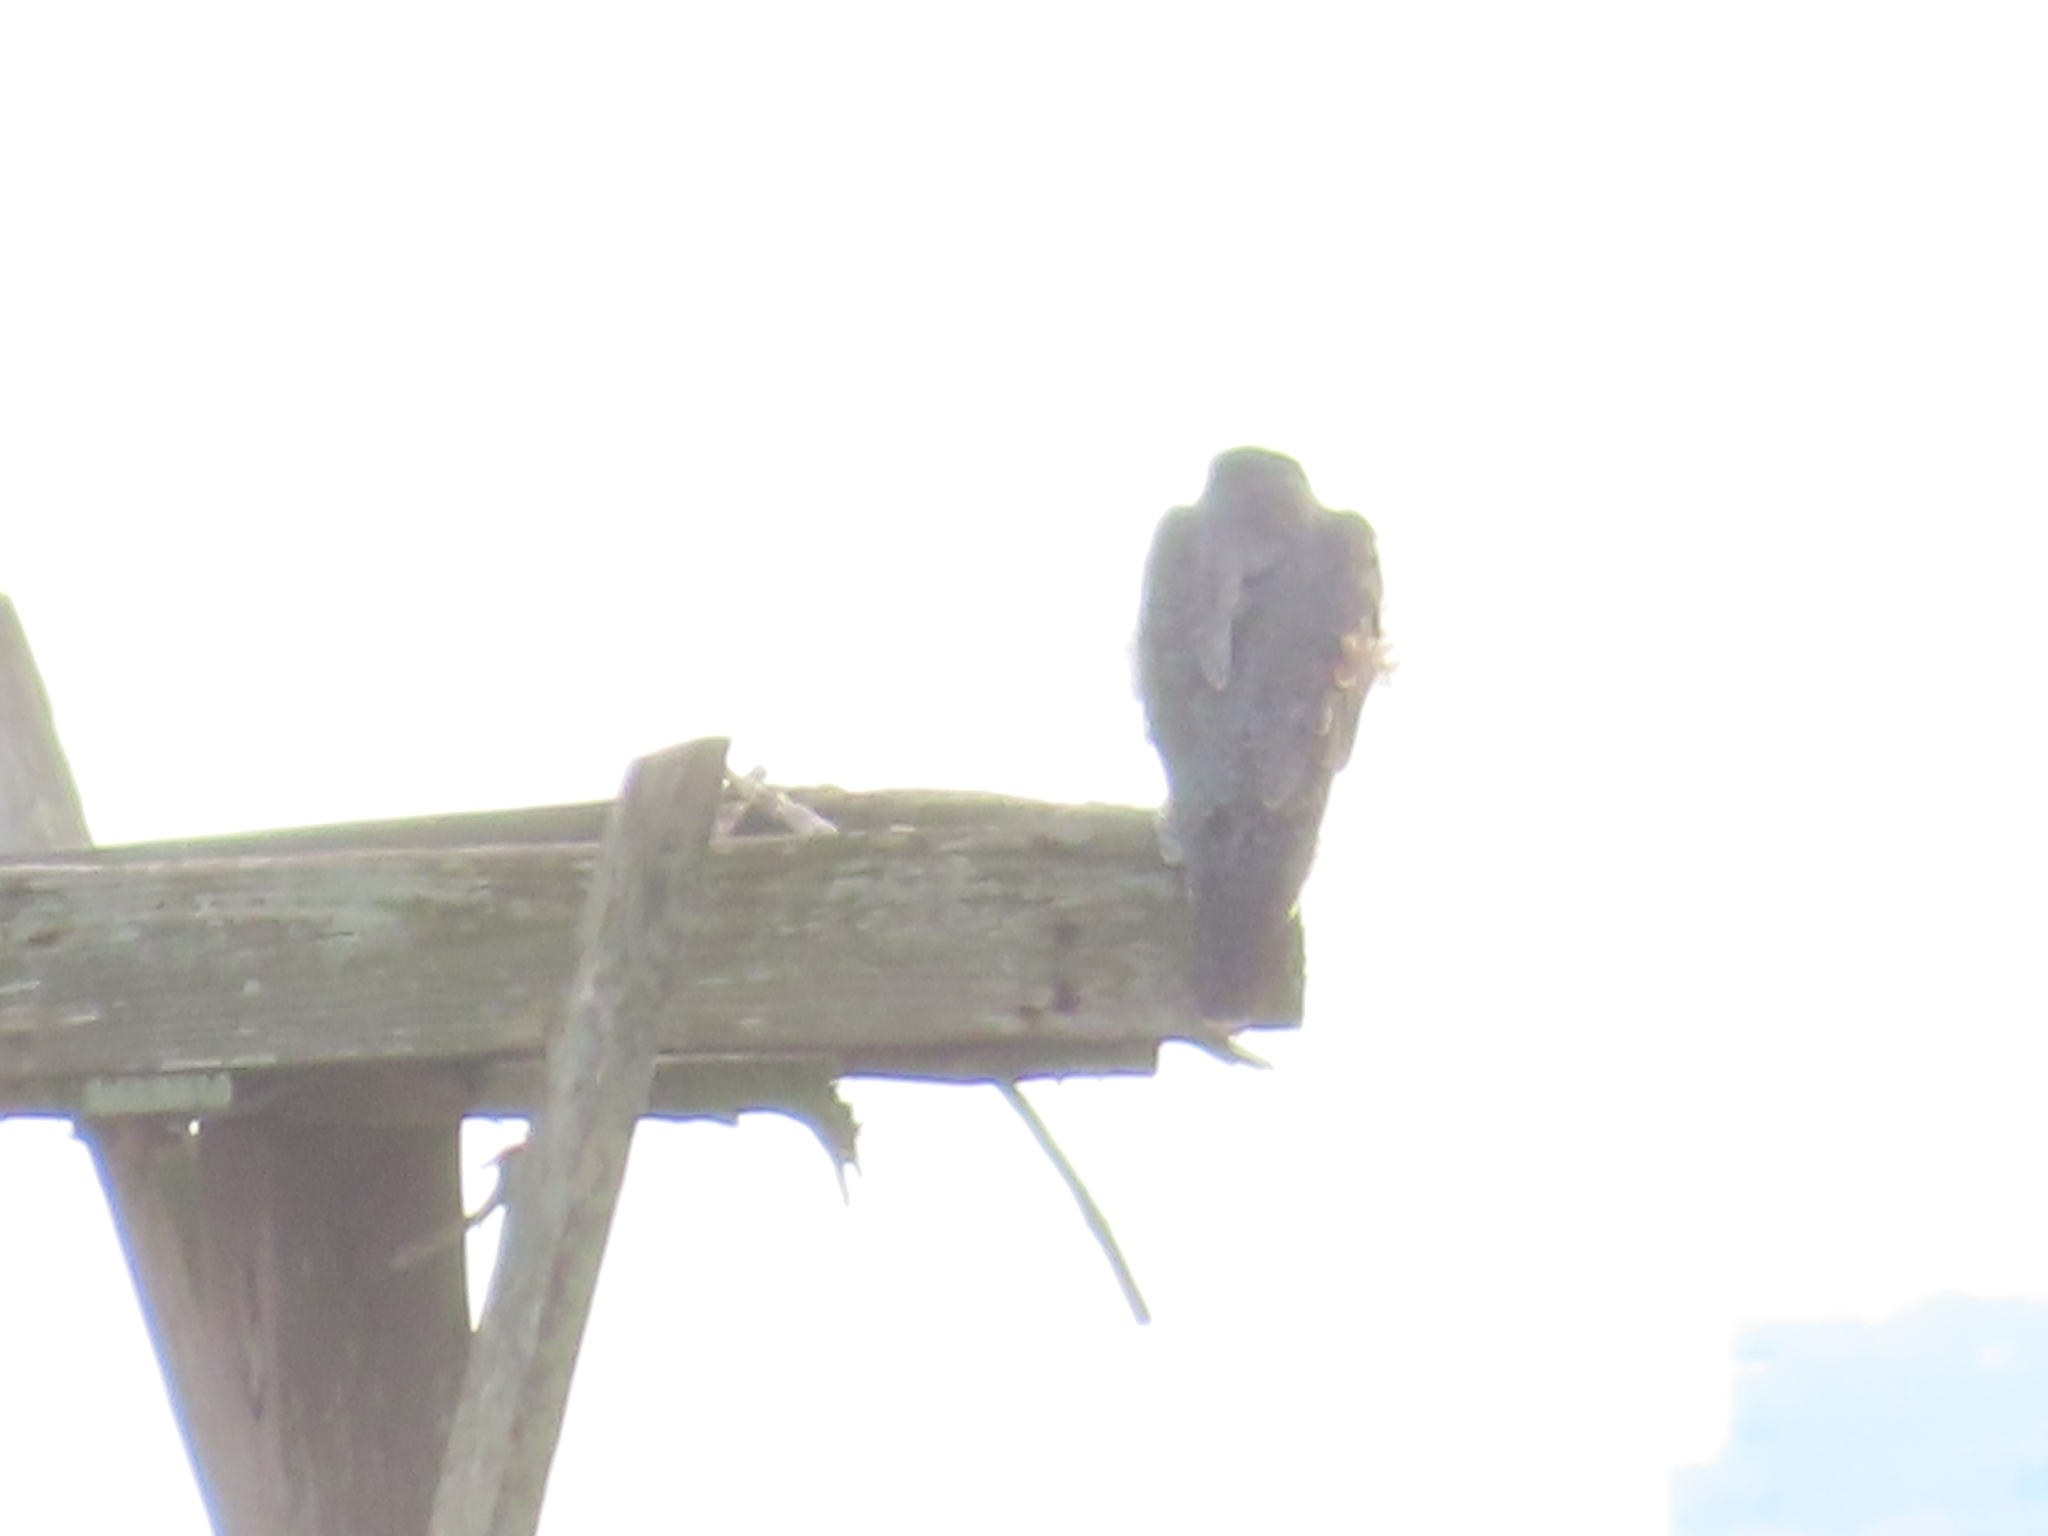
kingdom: Animalia
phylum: Chordata
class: Aves
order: Falconiformes
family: Falconidae
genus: Falco
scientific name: Falco peregrinus
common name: Peregrine falcon
